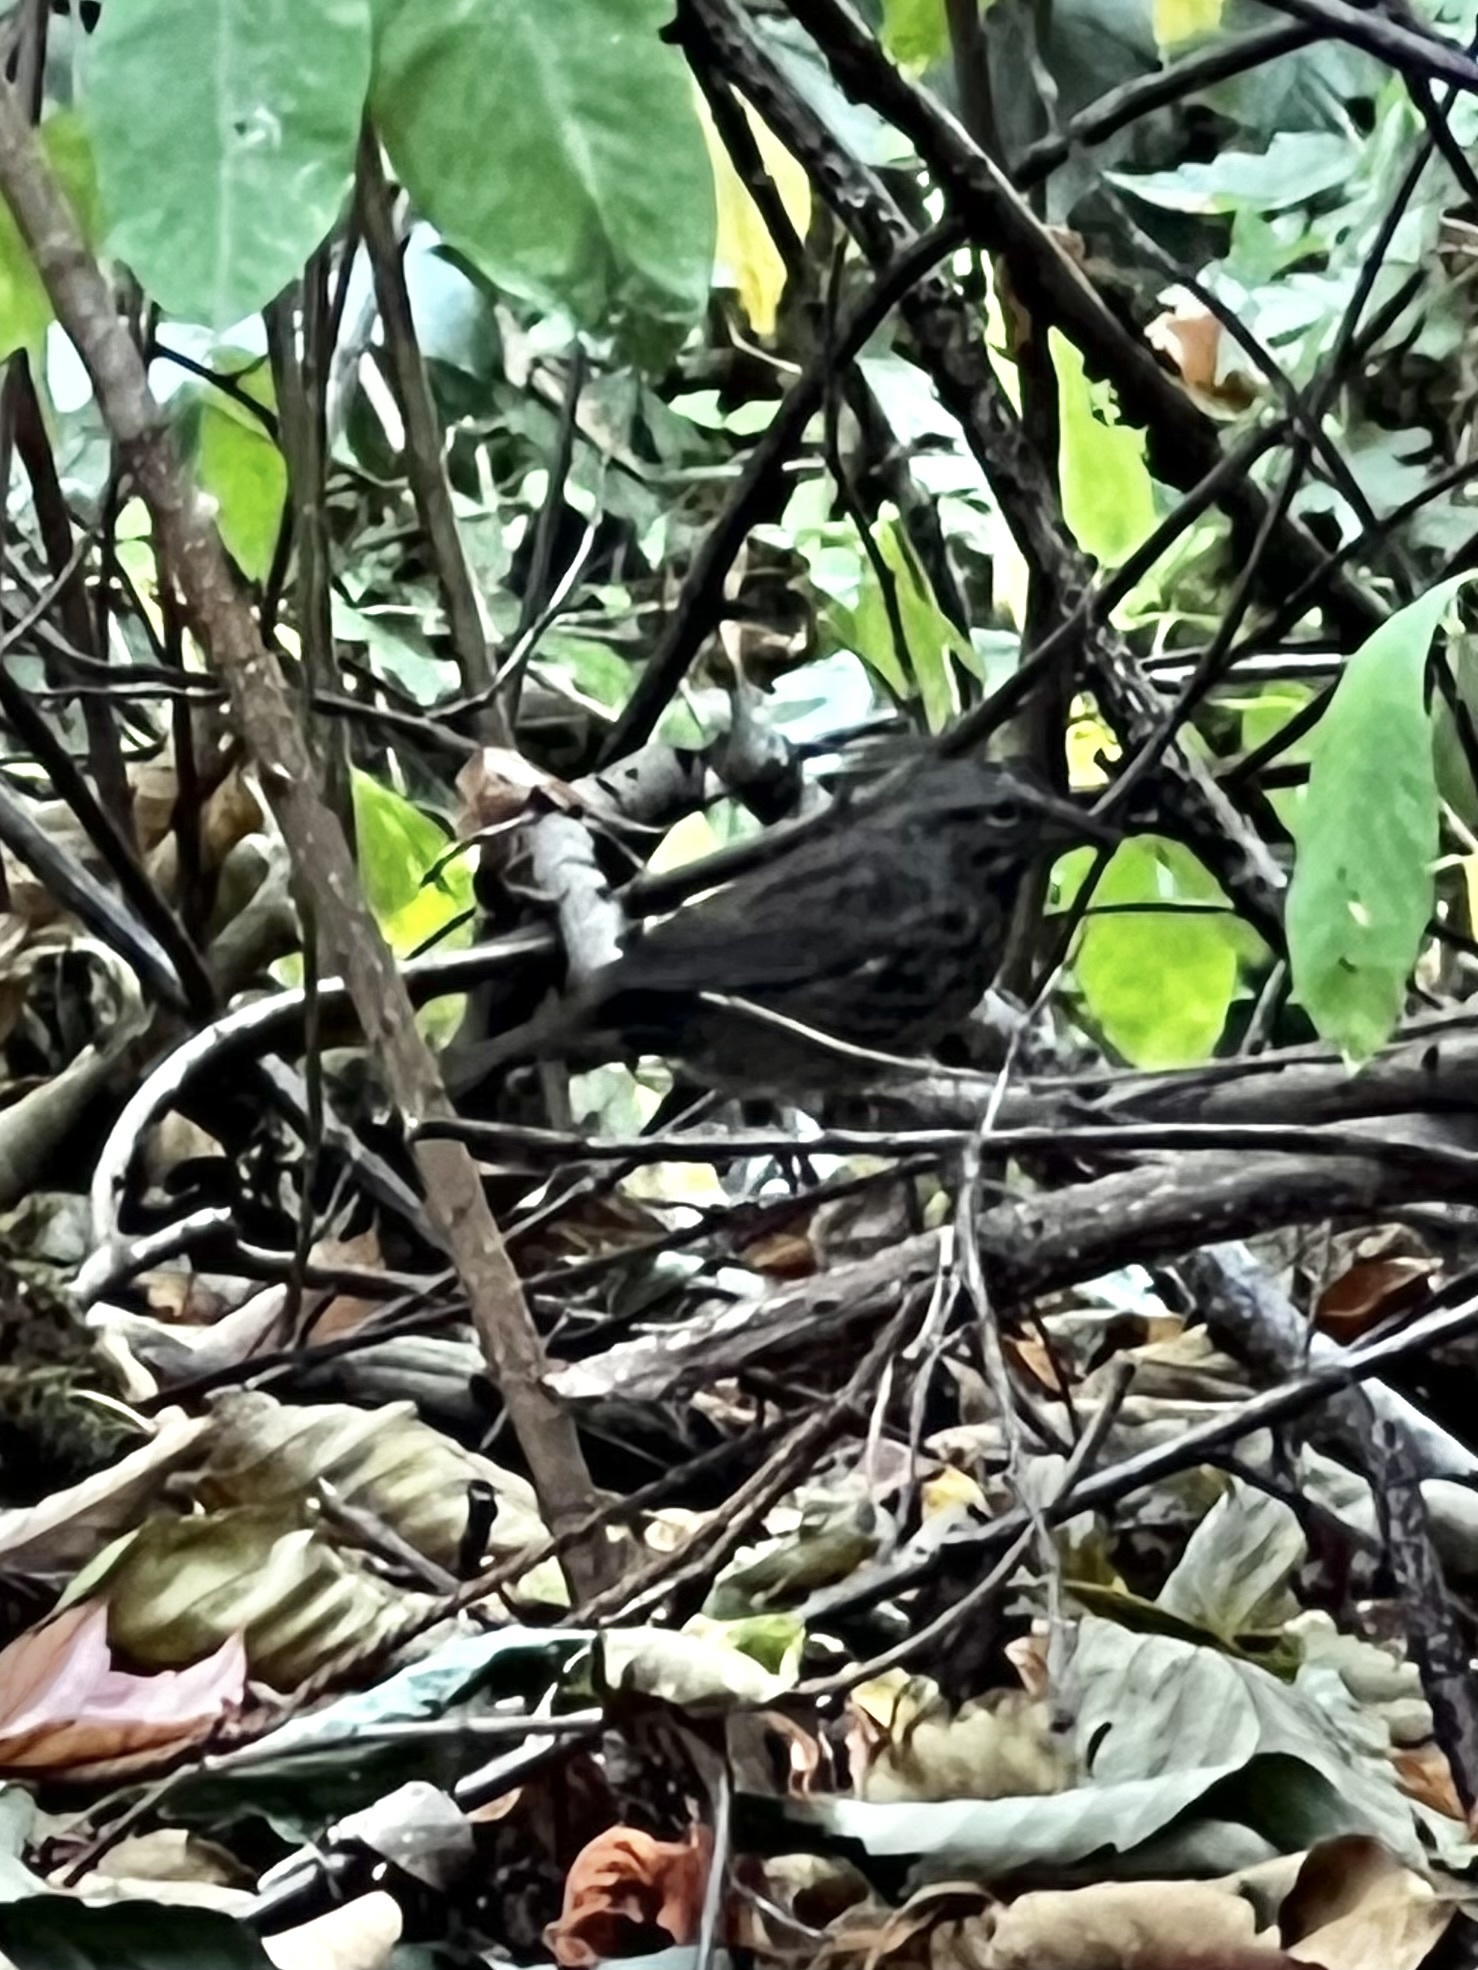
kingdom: Animalia
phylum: Chordata
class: Aves
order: Passeriformes
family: Passerellidae
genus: Melospiza
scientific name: Melospiza melodia
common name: Song sparrow
